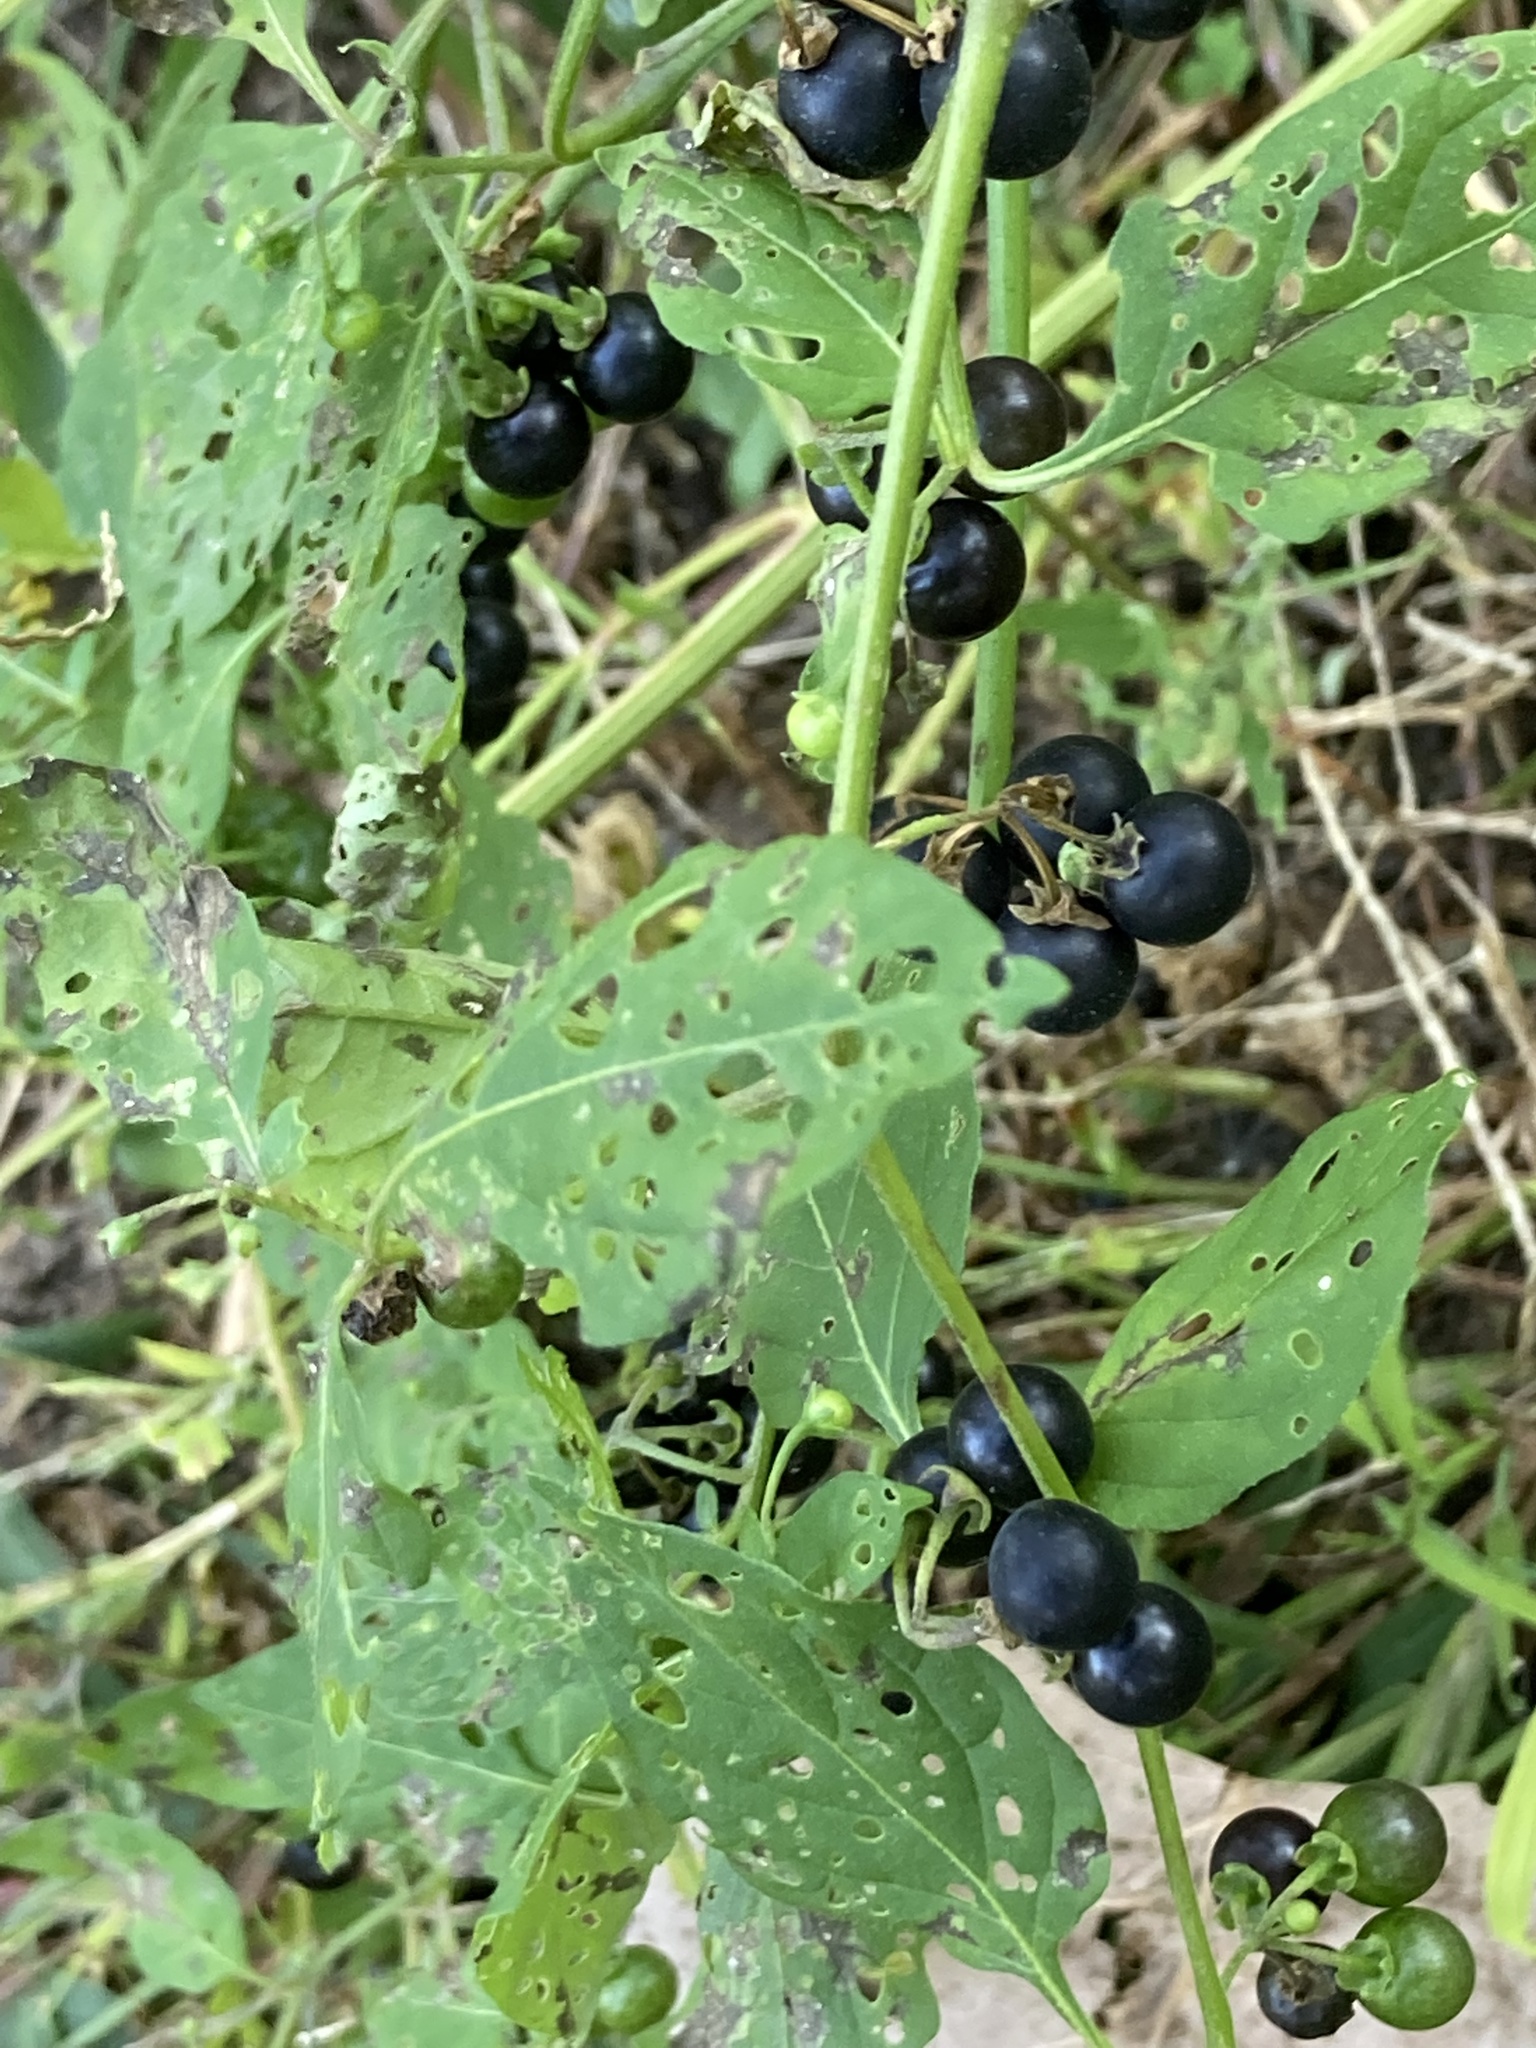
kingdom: Plantae
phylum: Tracheophyta
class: Magnoliopsida
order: Solanales
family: Solanaceae
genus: Solanum
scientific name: Solanum emulans
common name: Eastern black nightshade
